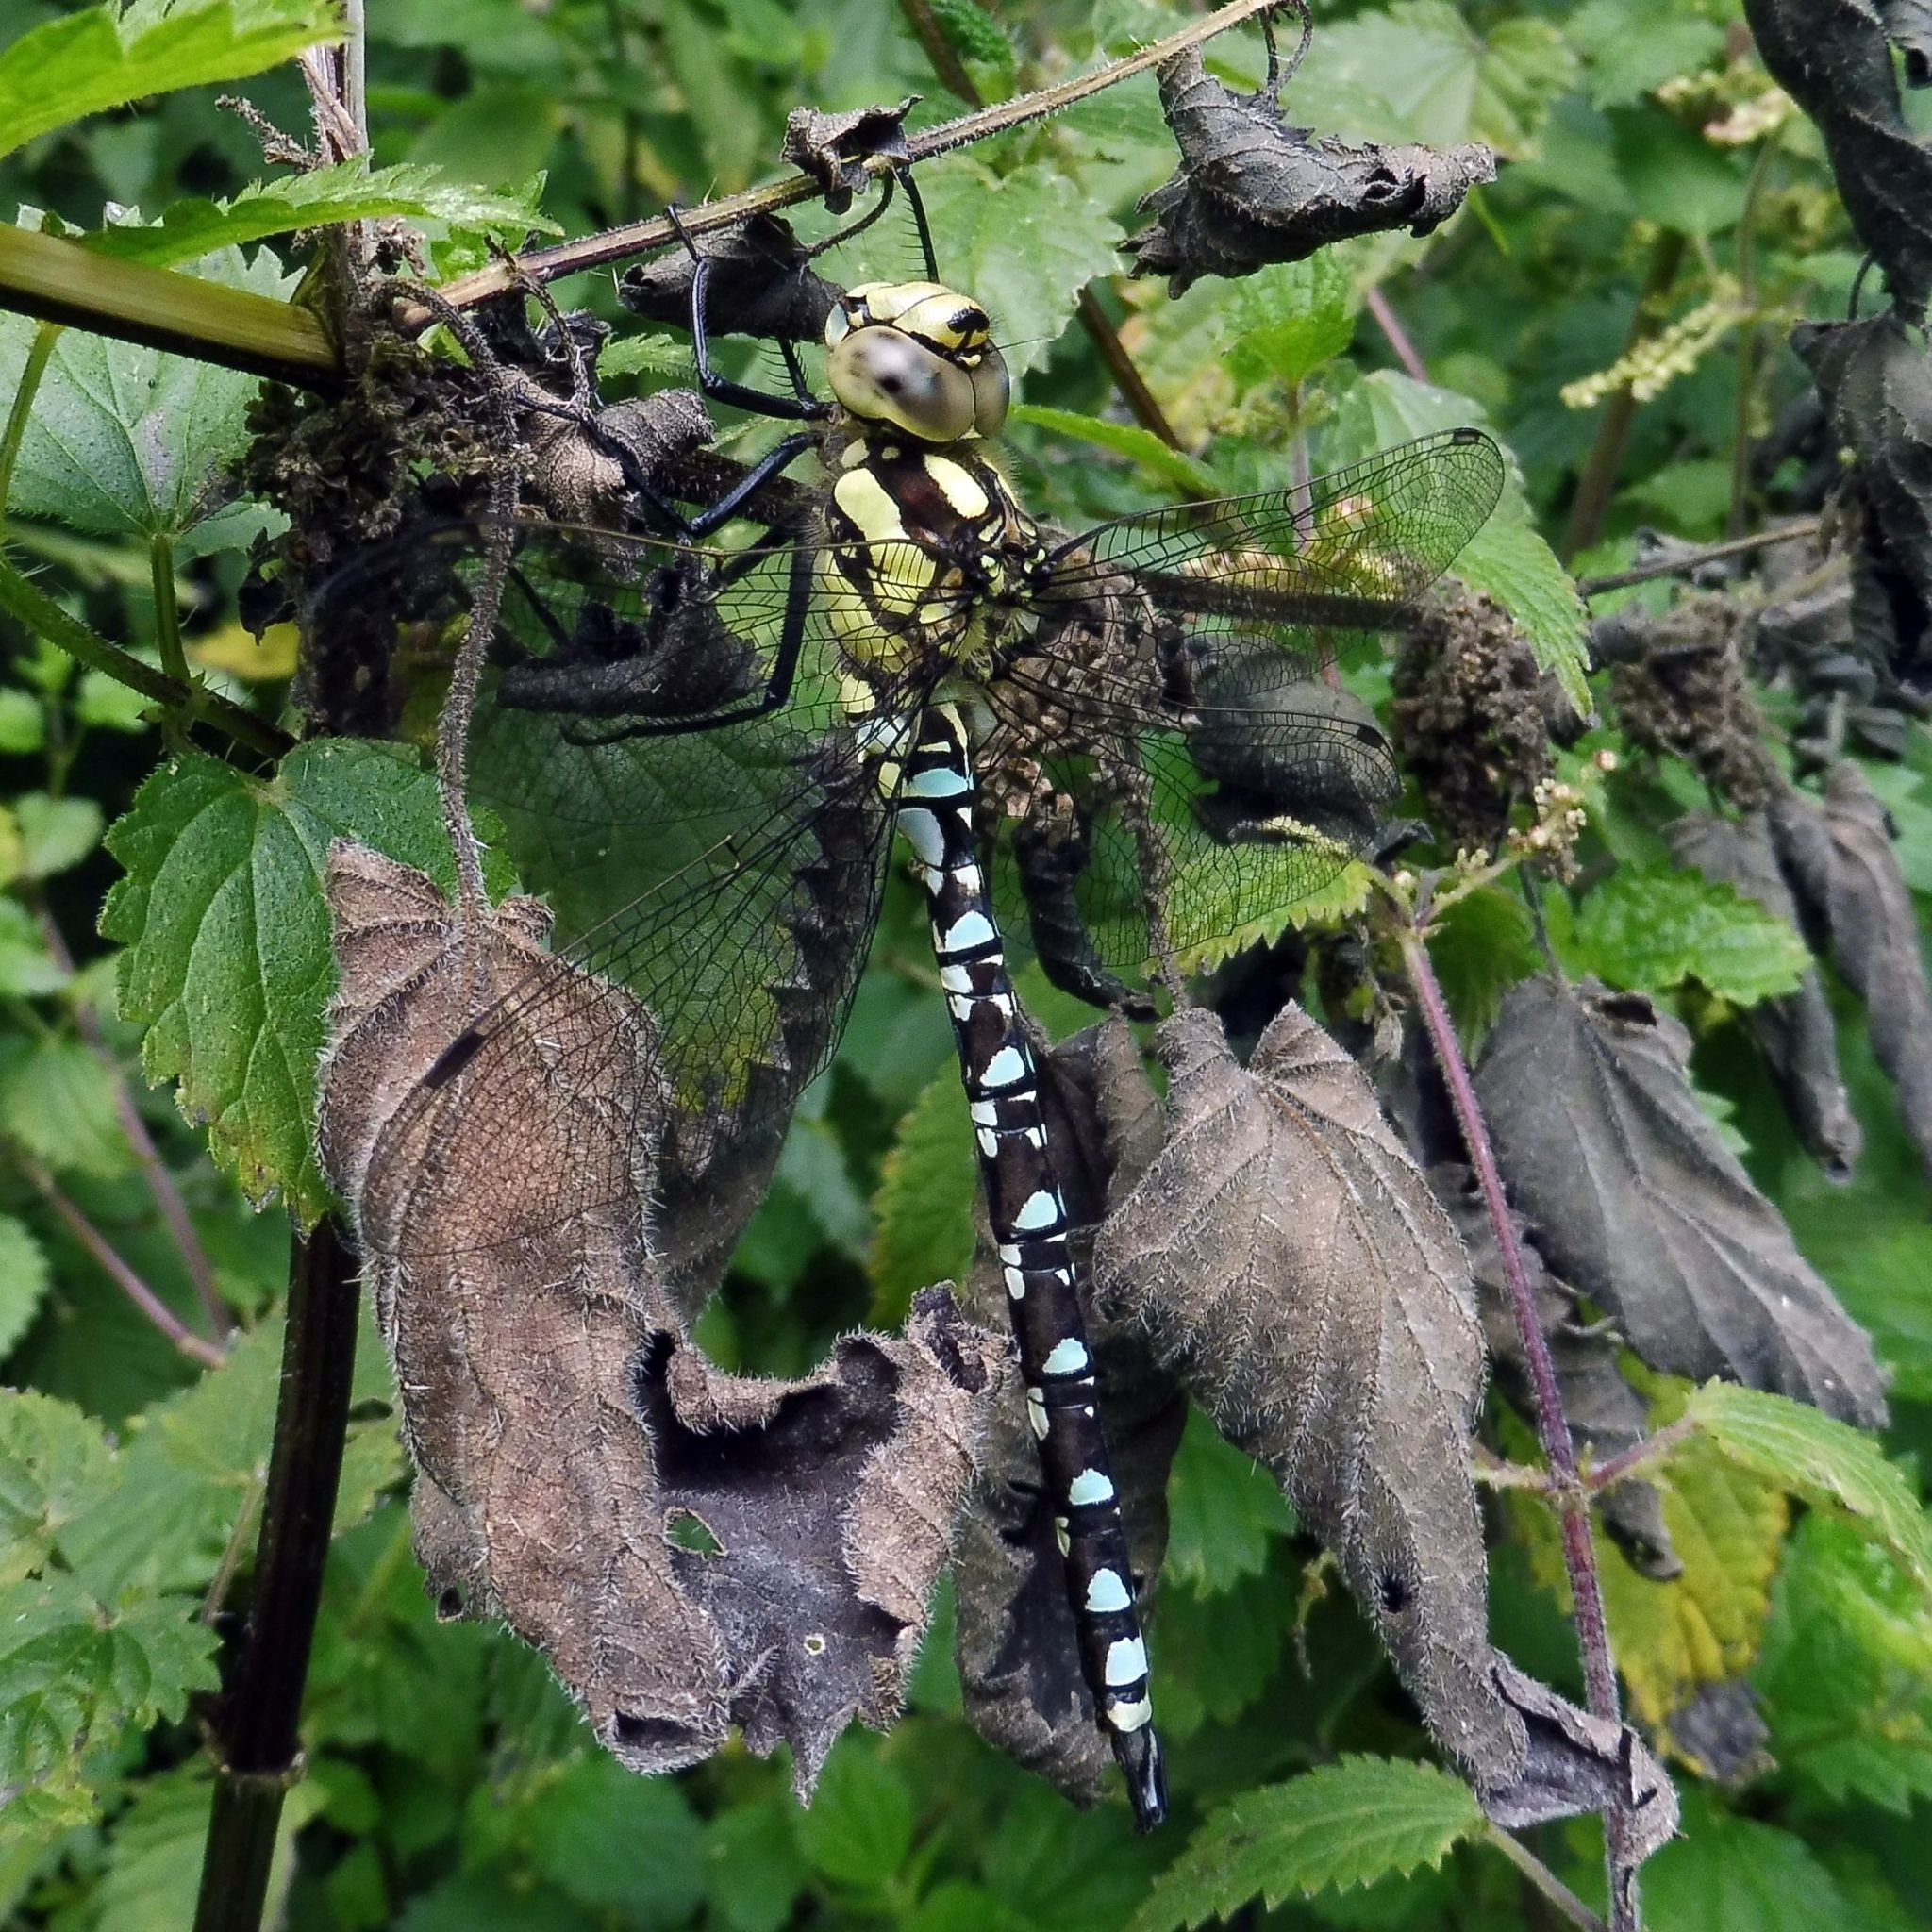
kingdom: Animalia
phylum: Arthropoda
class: Insecta
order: Odonata
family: Aeshnidae
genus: Aeshna
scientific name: Aeshna cyanea
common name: Southern hawker
